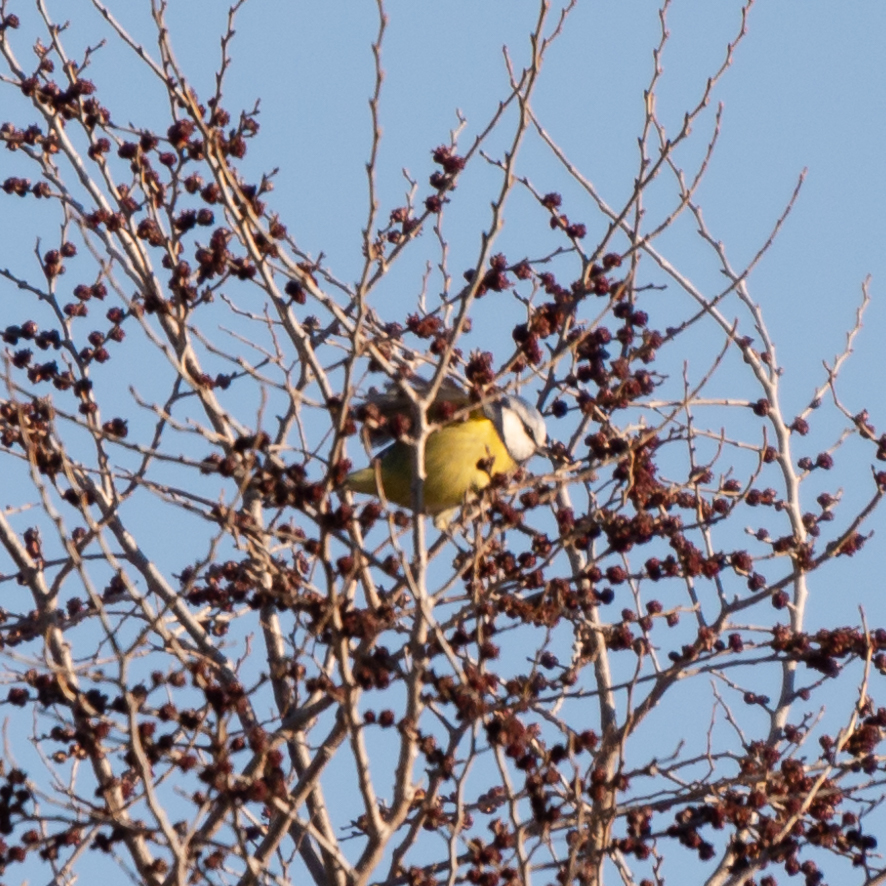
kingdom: Animalia
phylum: Chordata
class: Aves
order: Passeriformes
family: Paridae
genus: Cyanistes
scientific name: Cyanistes caeruleus
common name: Eurasian blue tit
